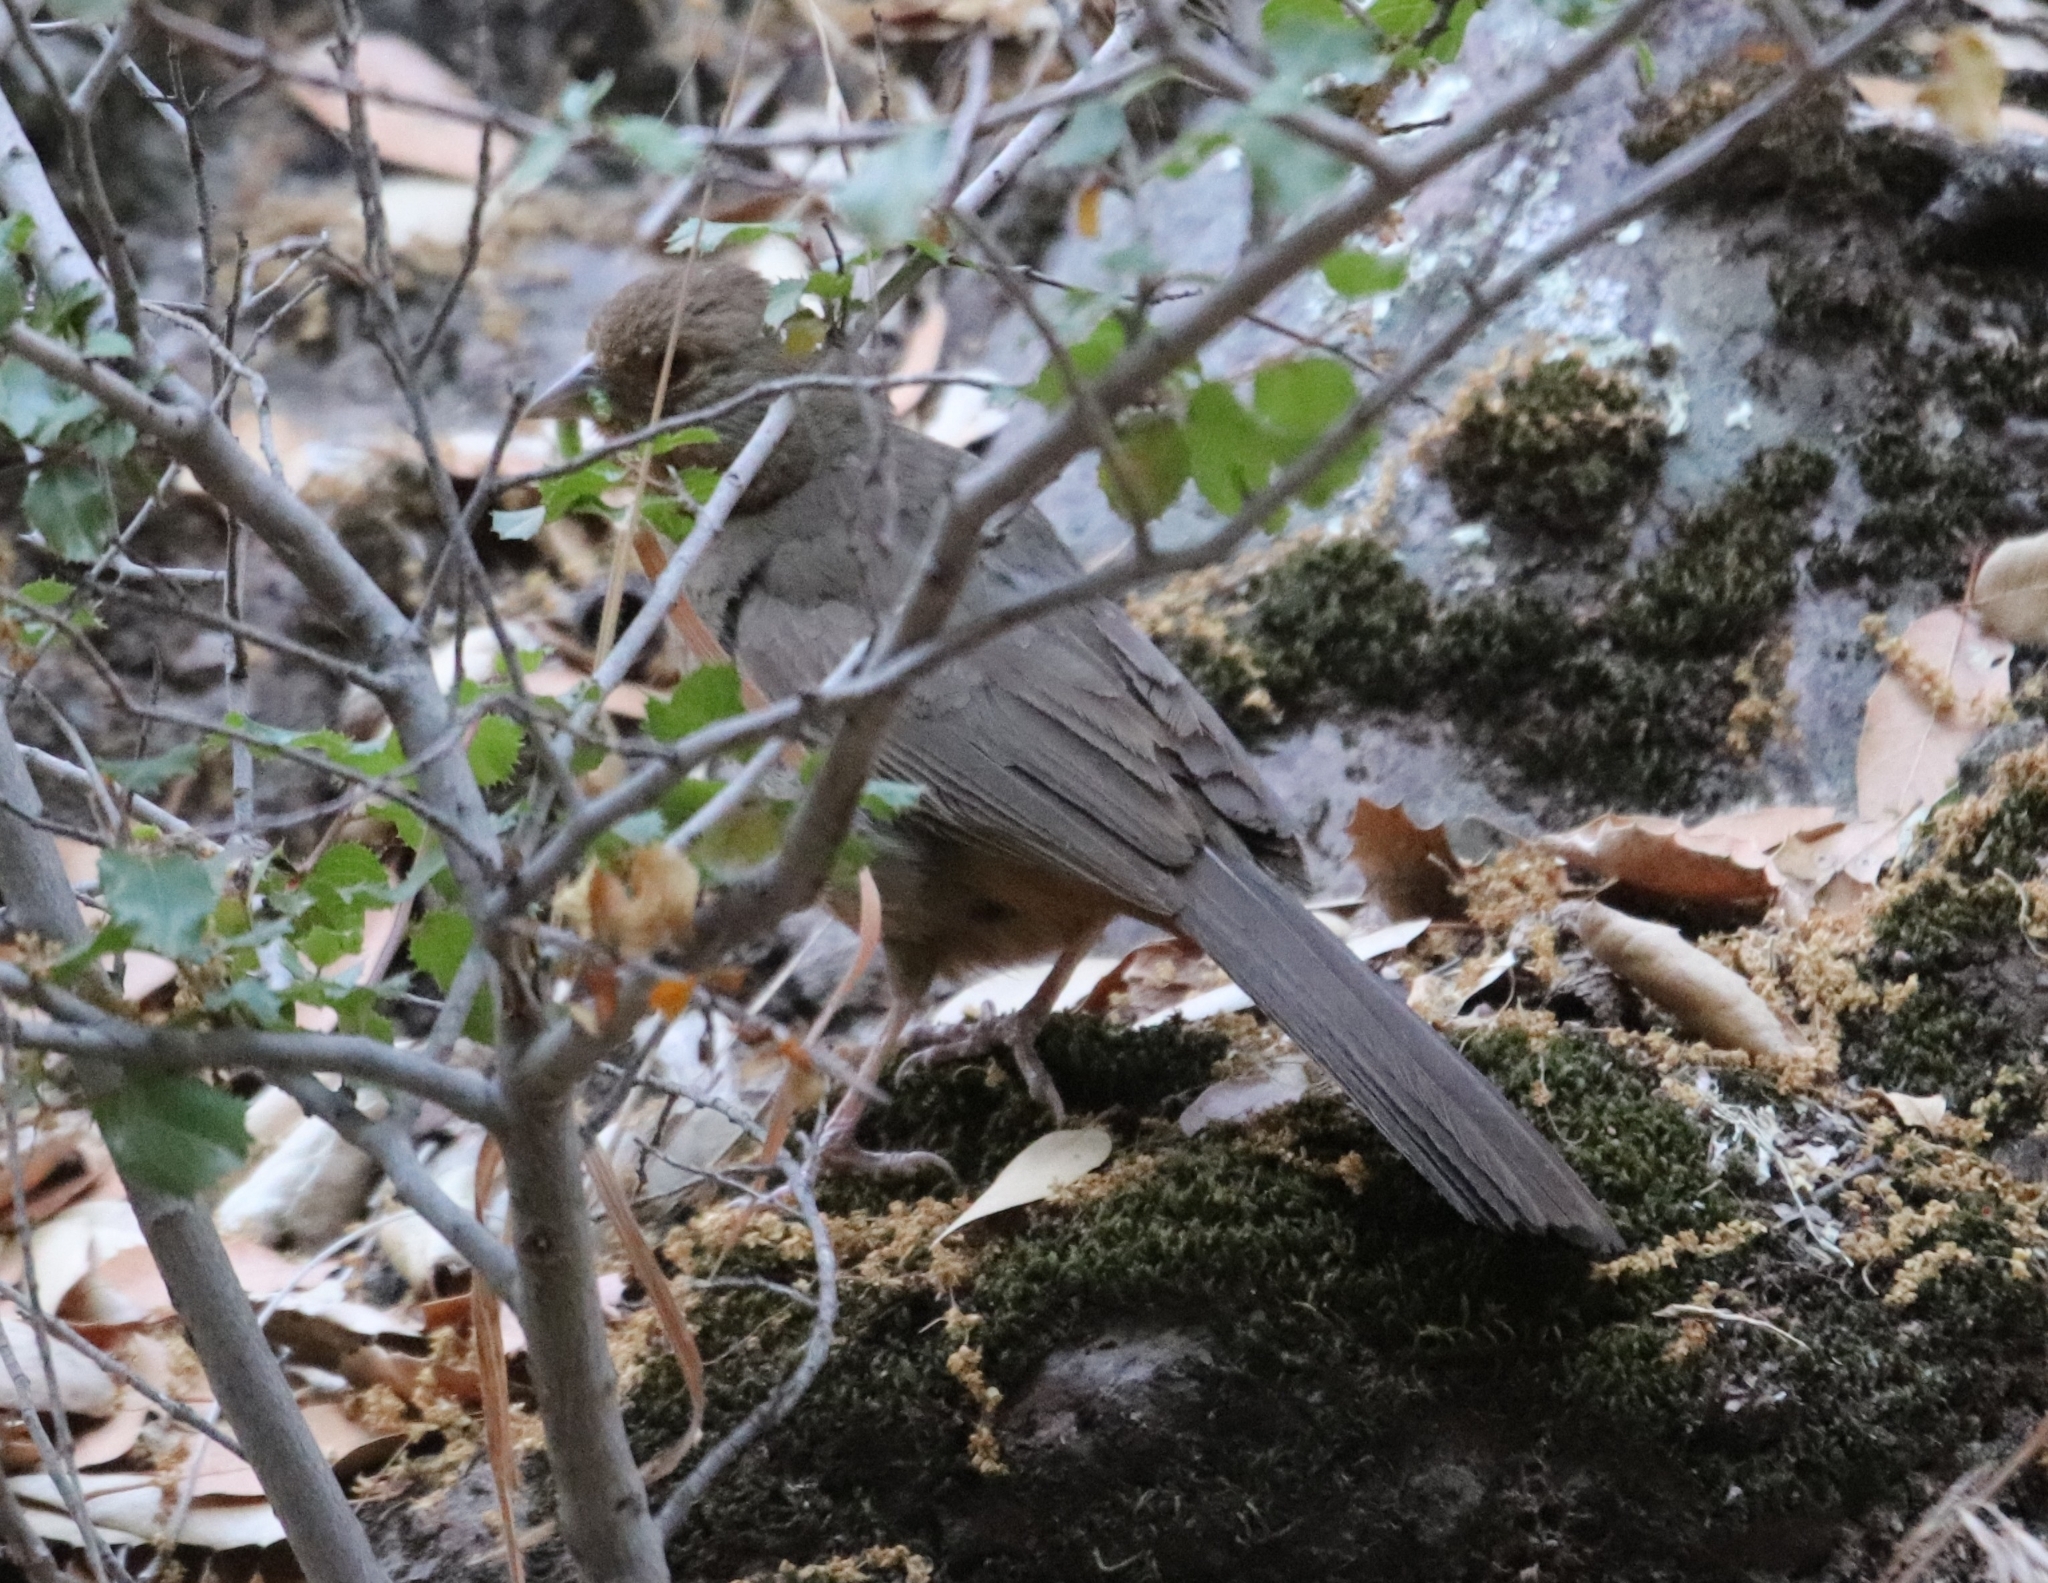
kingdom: Animalia
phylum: Chordata
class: Aves
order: Passeriformes
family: Passerellidae
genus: Melozone
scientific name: Melozone crissalis
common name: California towhee
